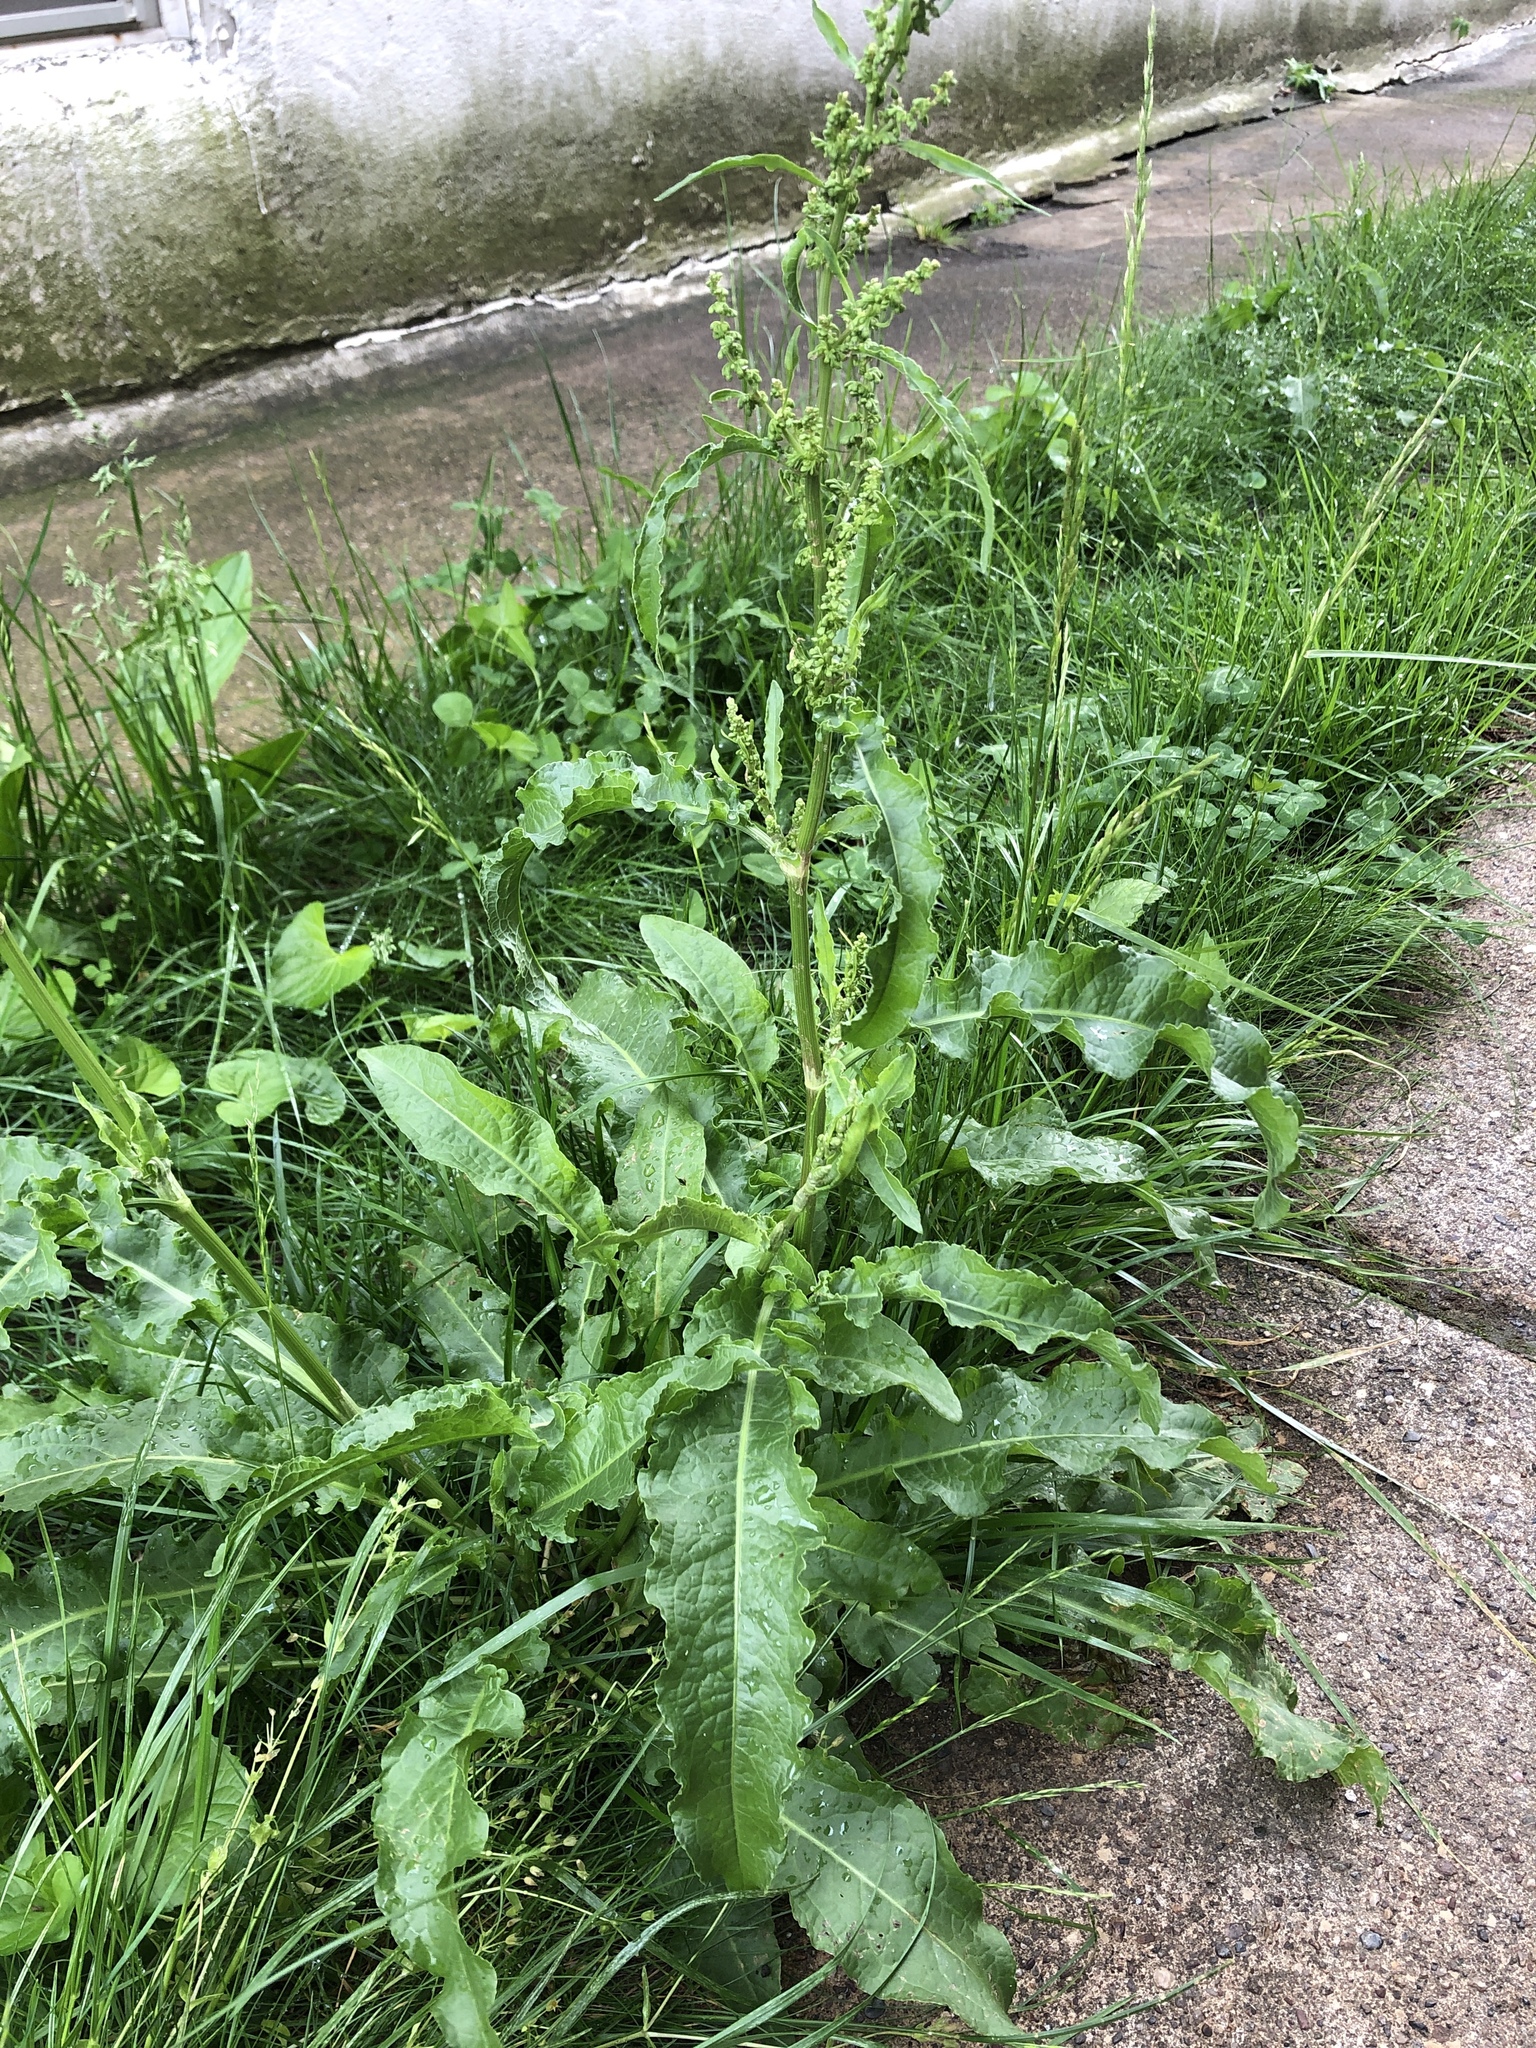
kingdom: Plantae
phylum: Tracheophyta
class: Magnoliopsida
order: Caryophyllales
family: Polygonaceae
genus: Rumex
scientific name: Rumex crispus
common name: Curled dock
